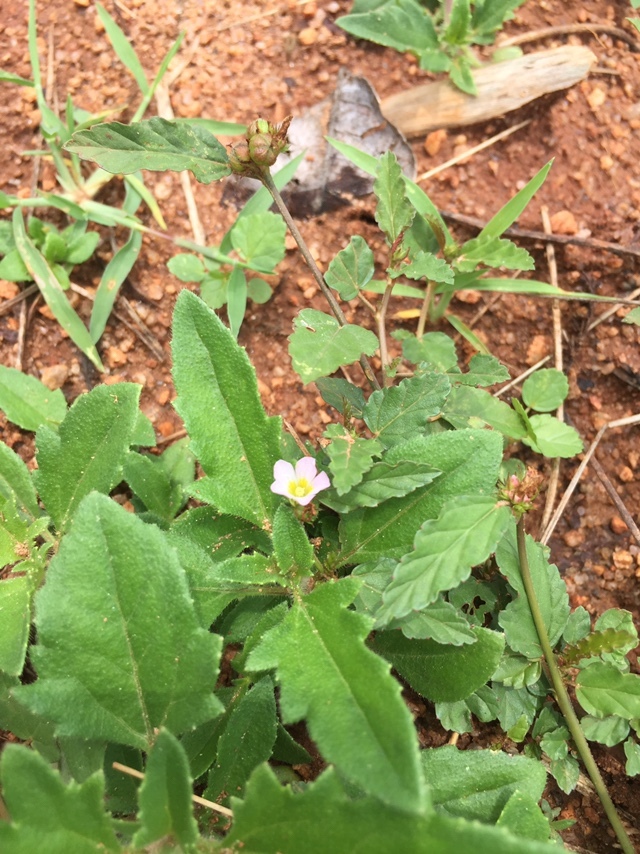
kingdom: Plantae
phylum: Tracheophyta
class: Magnoliopsida
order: Malvales
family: Malvaceae
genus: Melochia
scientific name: Melochia corchorifolia
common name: Chocolateweed
